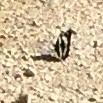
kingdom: Animalia
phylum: Arthropoda
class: Insecta
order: Lepidoptera
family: Nymphalidae
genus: Limenitis
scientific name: Limenitis arthemis
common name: Red-spotted admiral
